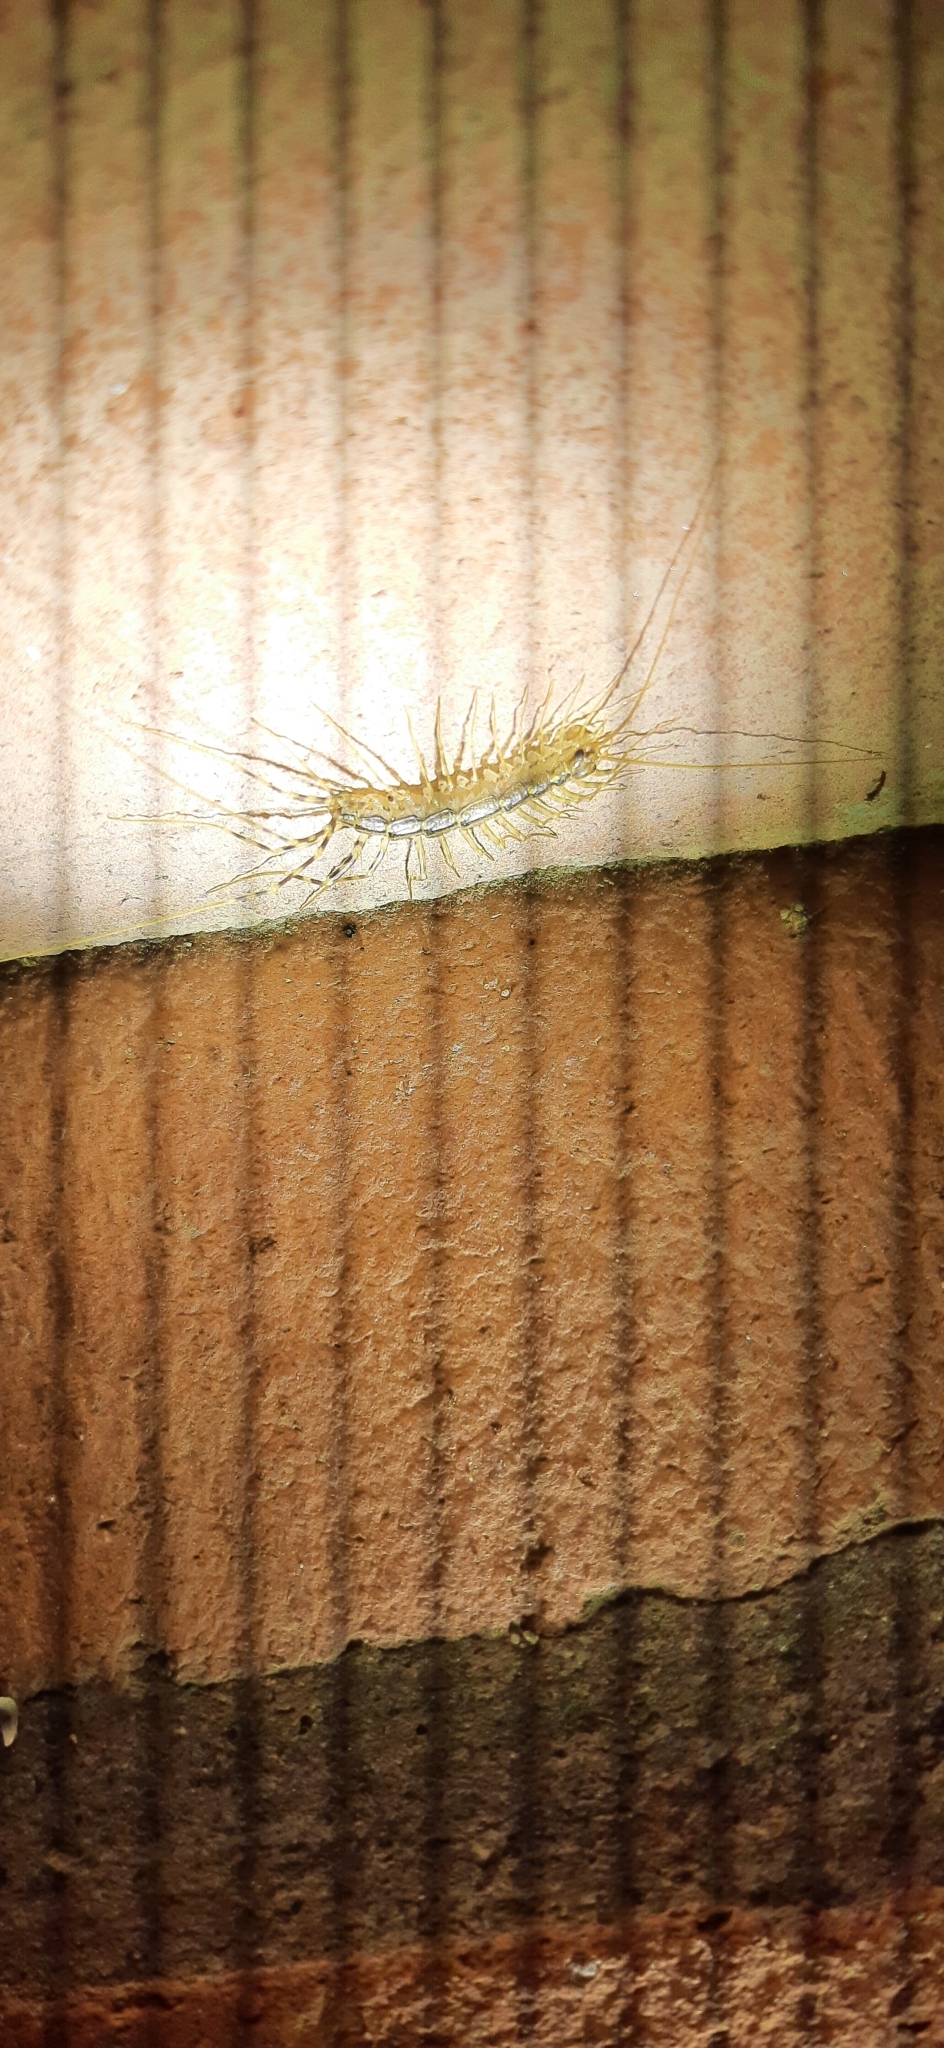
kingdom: Animalia
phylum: Arthropoda
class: Chilopoda
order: Scutigeromorpha
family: Scutigeridae
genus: Scutigera
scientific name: Scutigera coleoptrata
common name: House centipede
